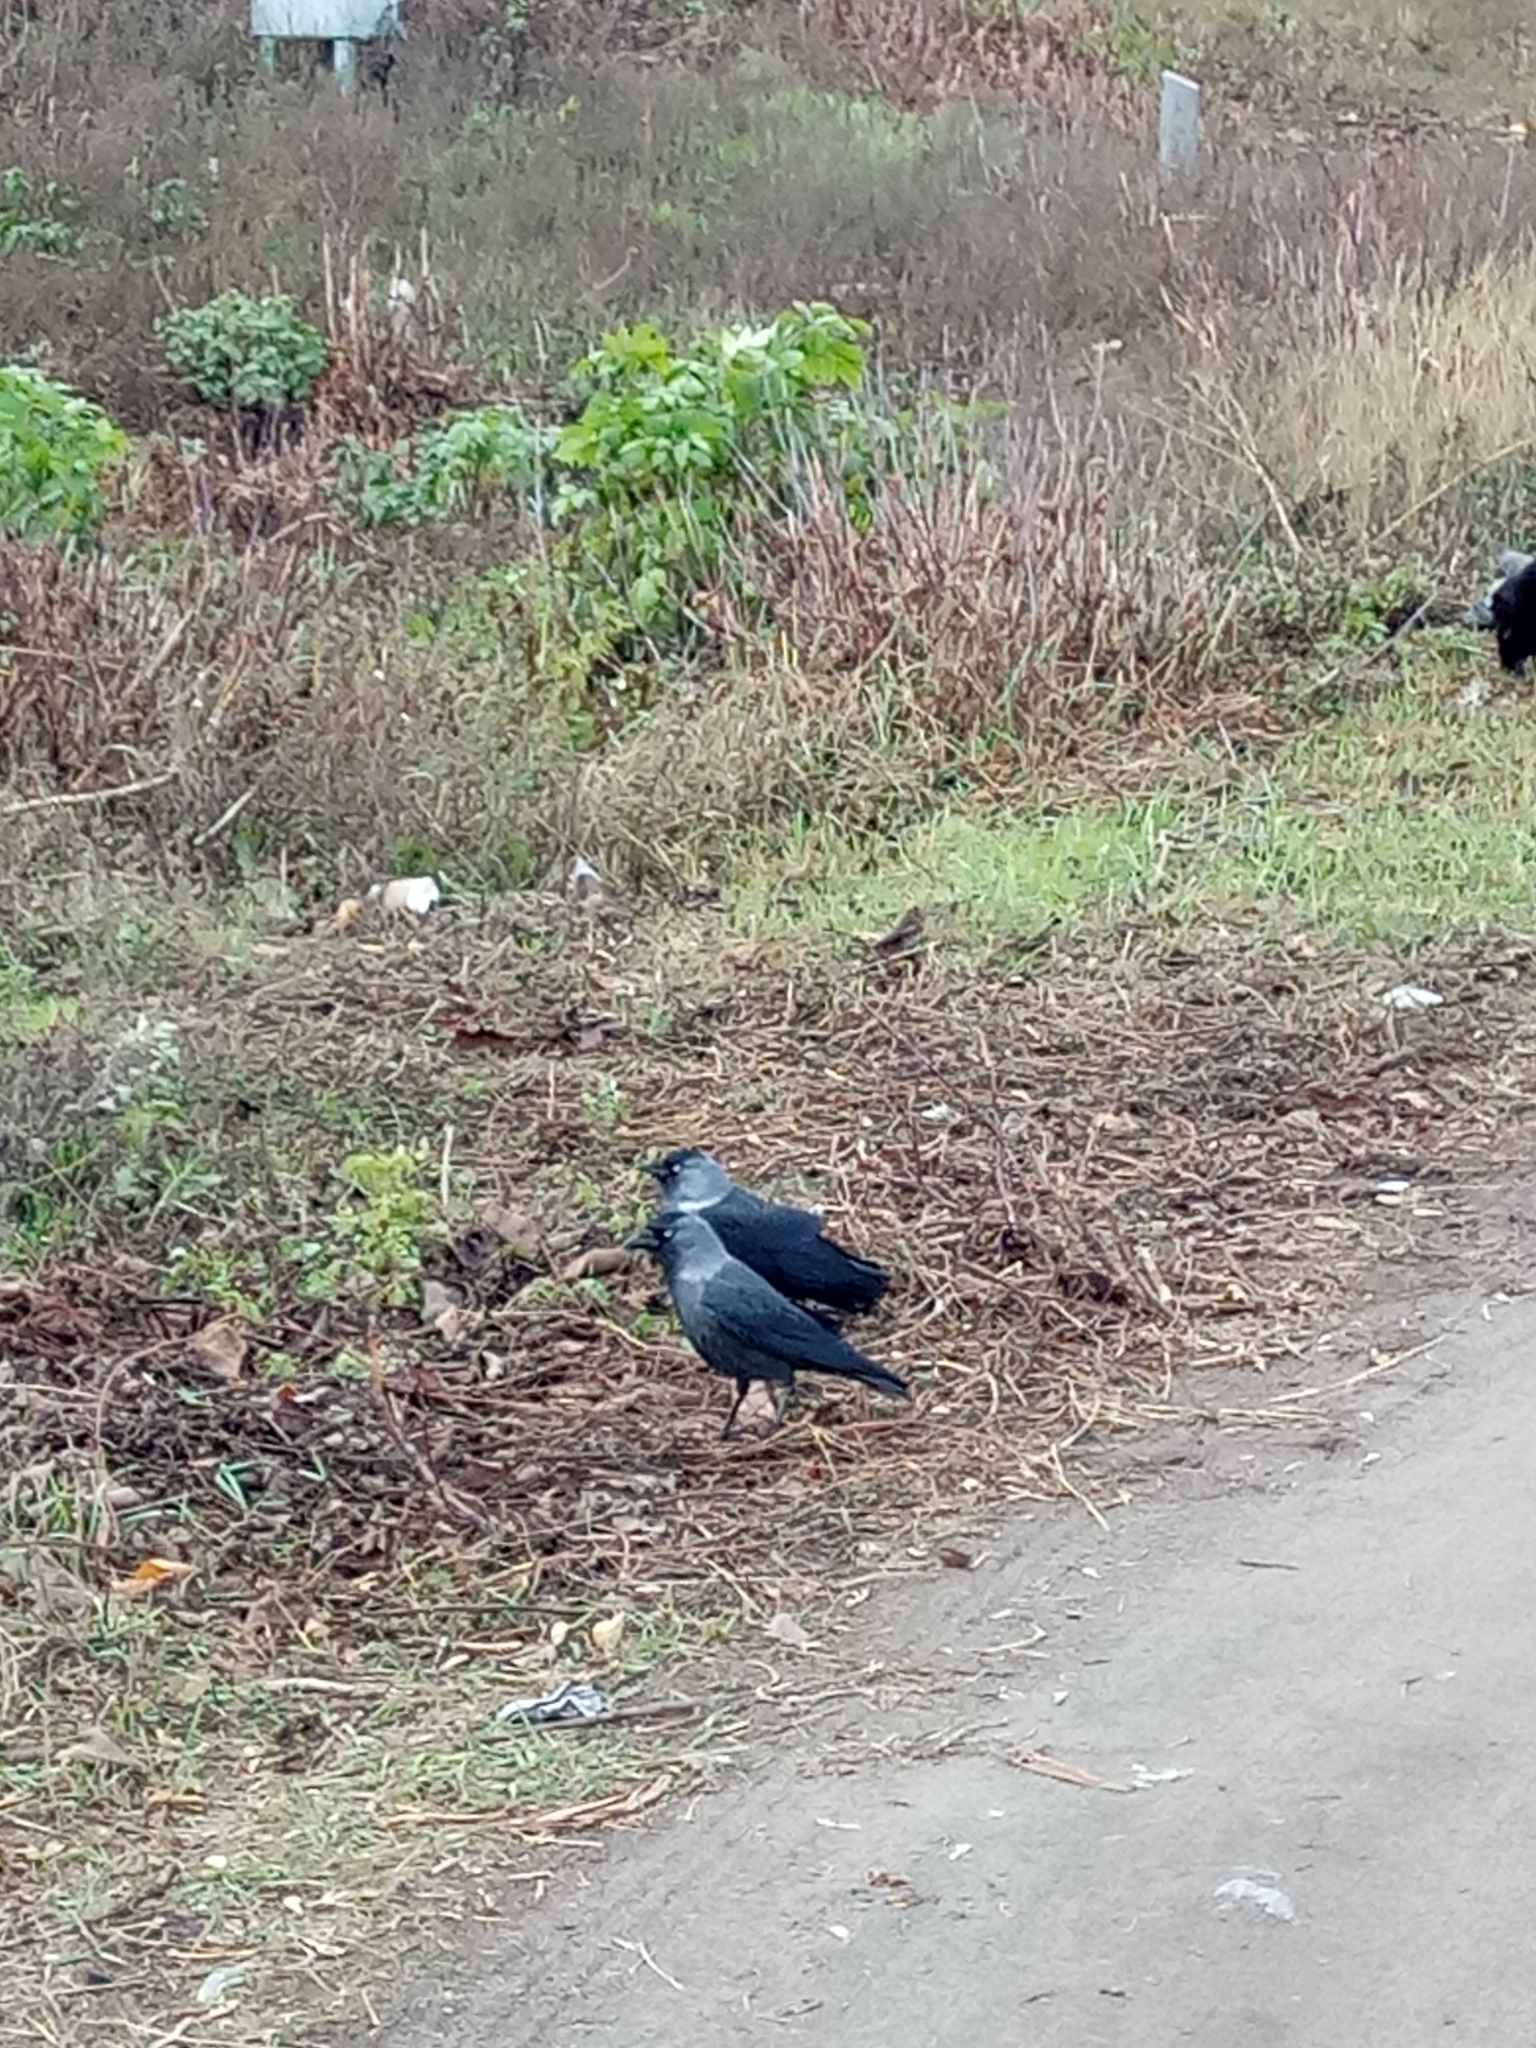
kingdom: Animalia
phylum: Chordata
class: Aves
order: Passeriformes
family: Corvidae
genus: Coloeus
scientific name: Coloeus monedula
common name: Western jackdaw
